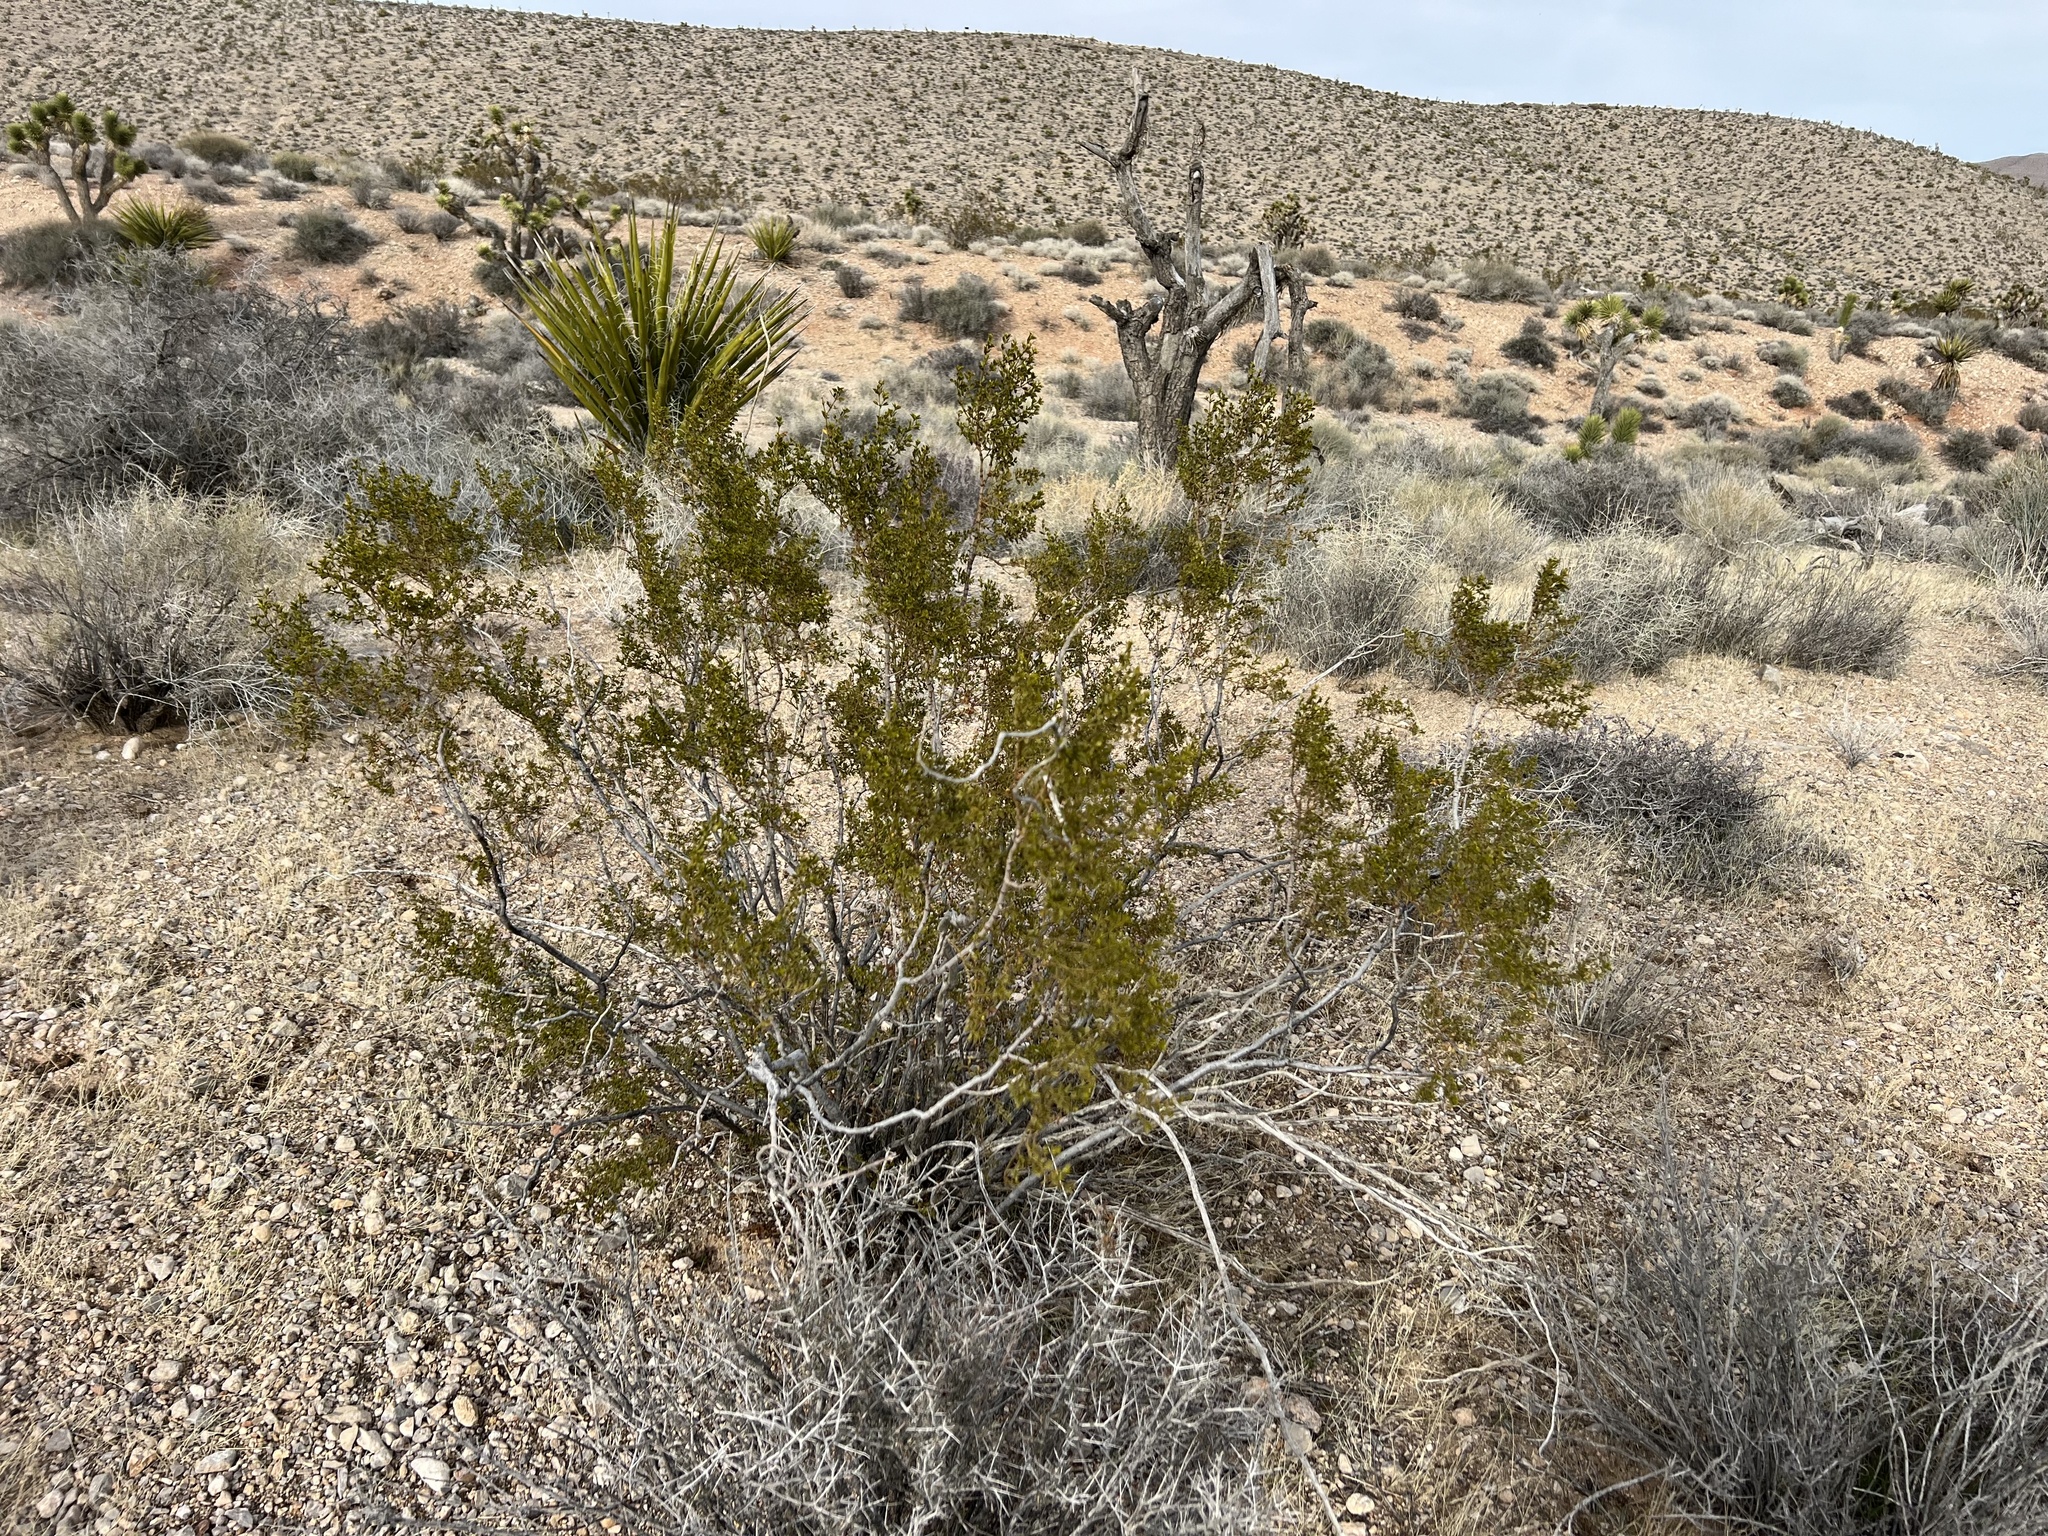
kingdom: Plantae
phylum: Tracheophyta
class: Magnoliopsida
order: Zygophyllales
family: Zygophyllaceae
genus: Larrea
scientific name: Larrea tridentata
